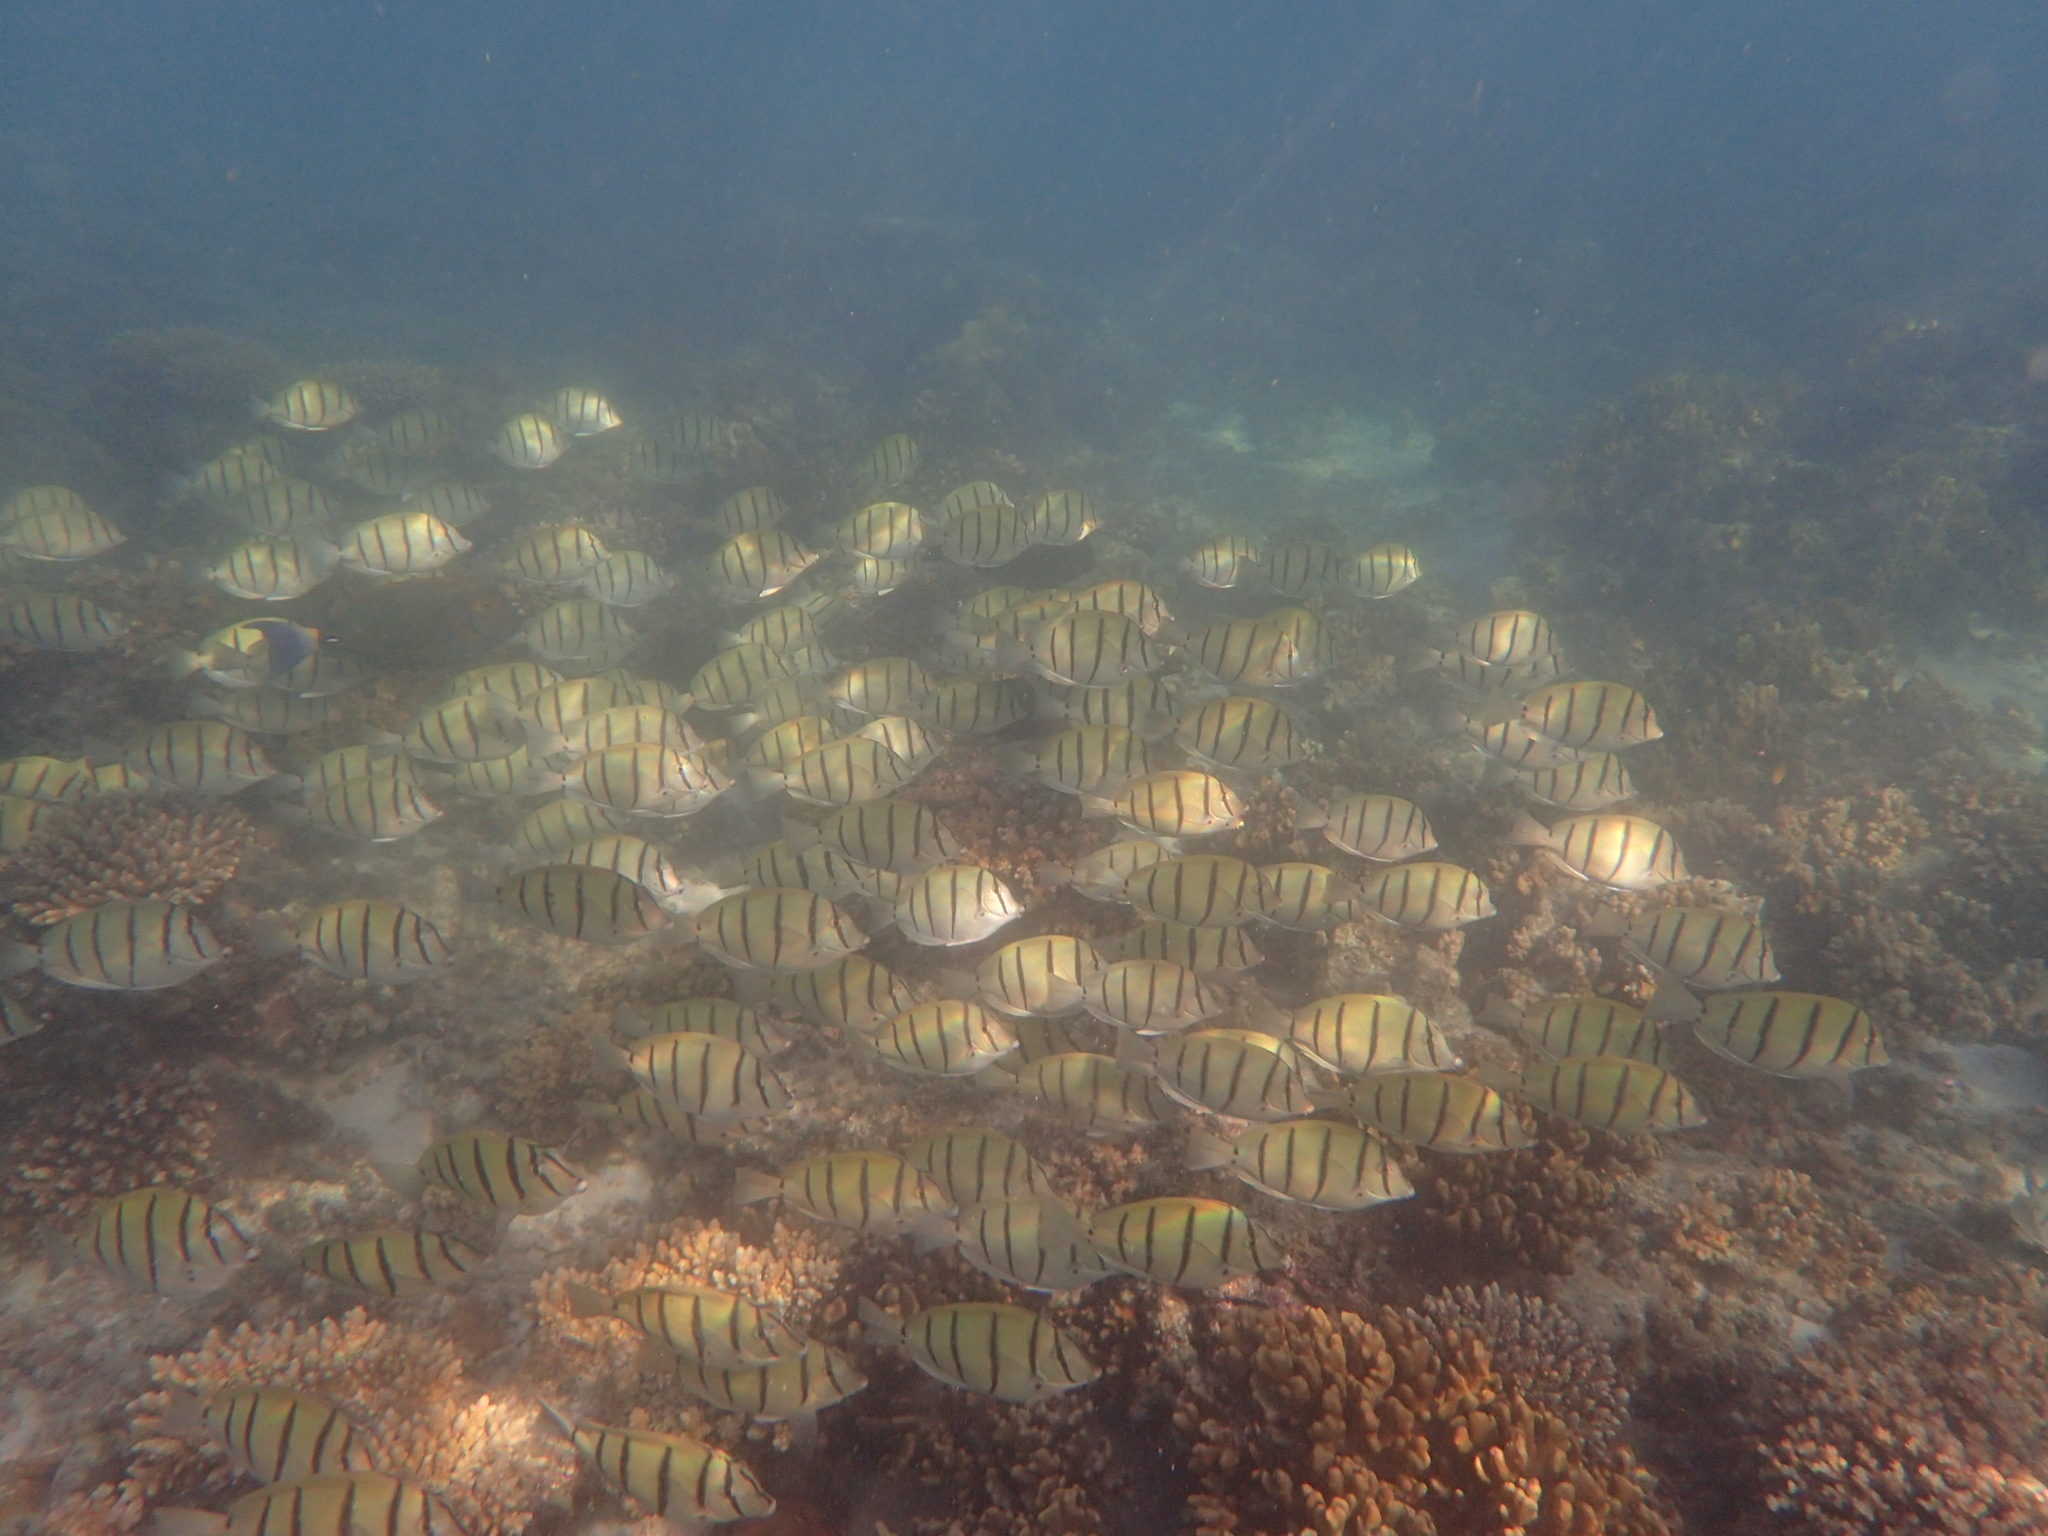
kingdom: Animalia
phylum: Chordata
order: Perciformes
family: Acanthuridae
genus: Acanthurus
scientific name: Acanthurus triostegus
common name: Convict surgeonfish
